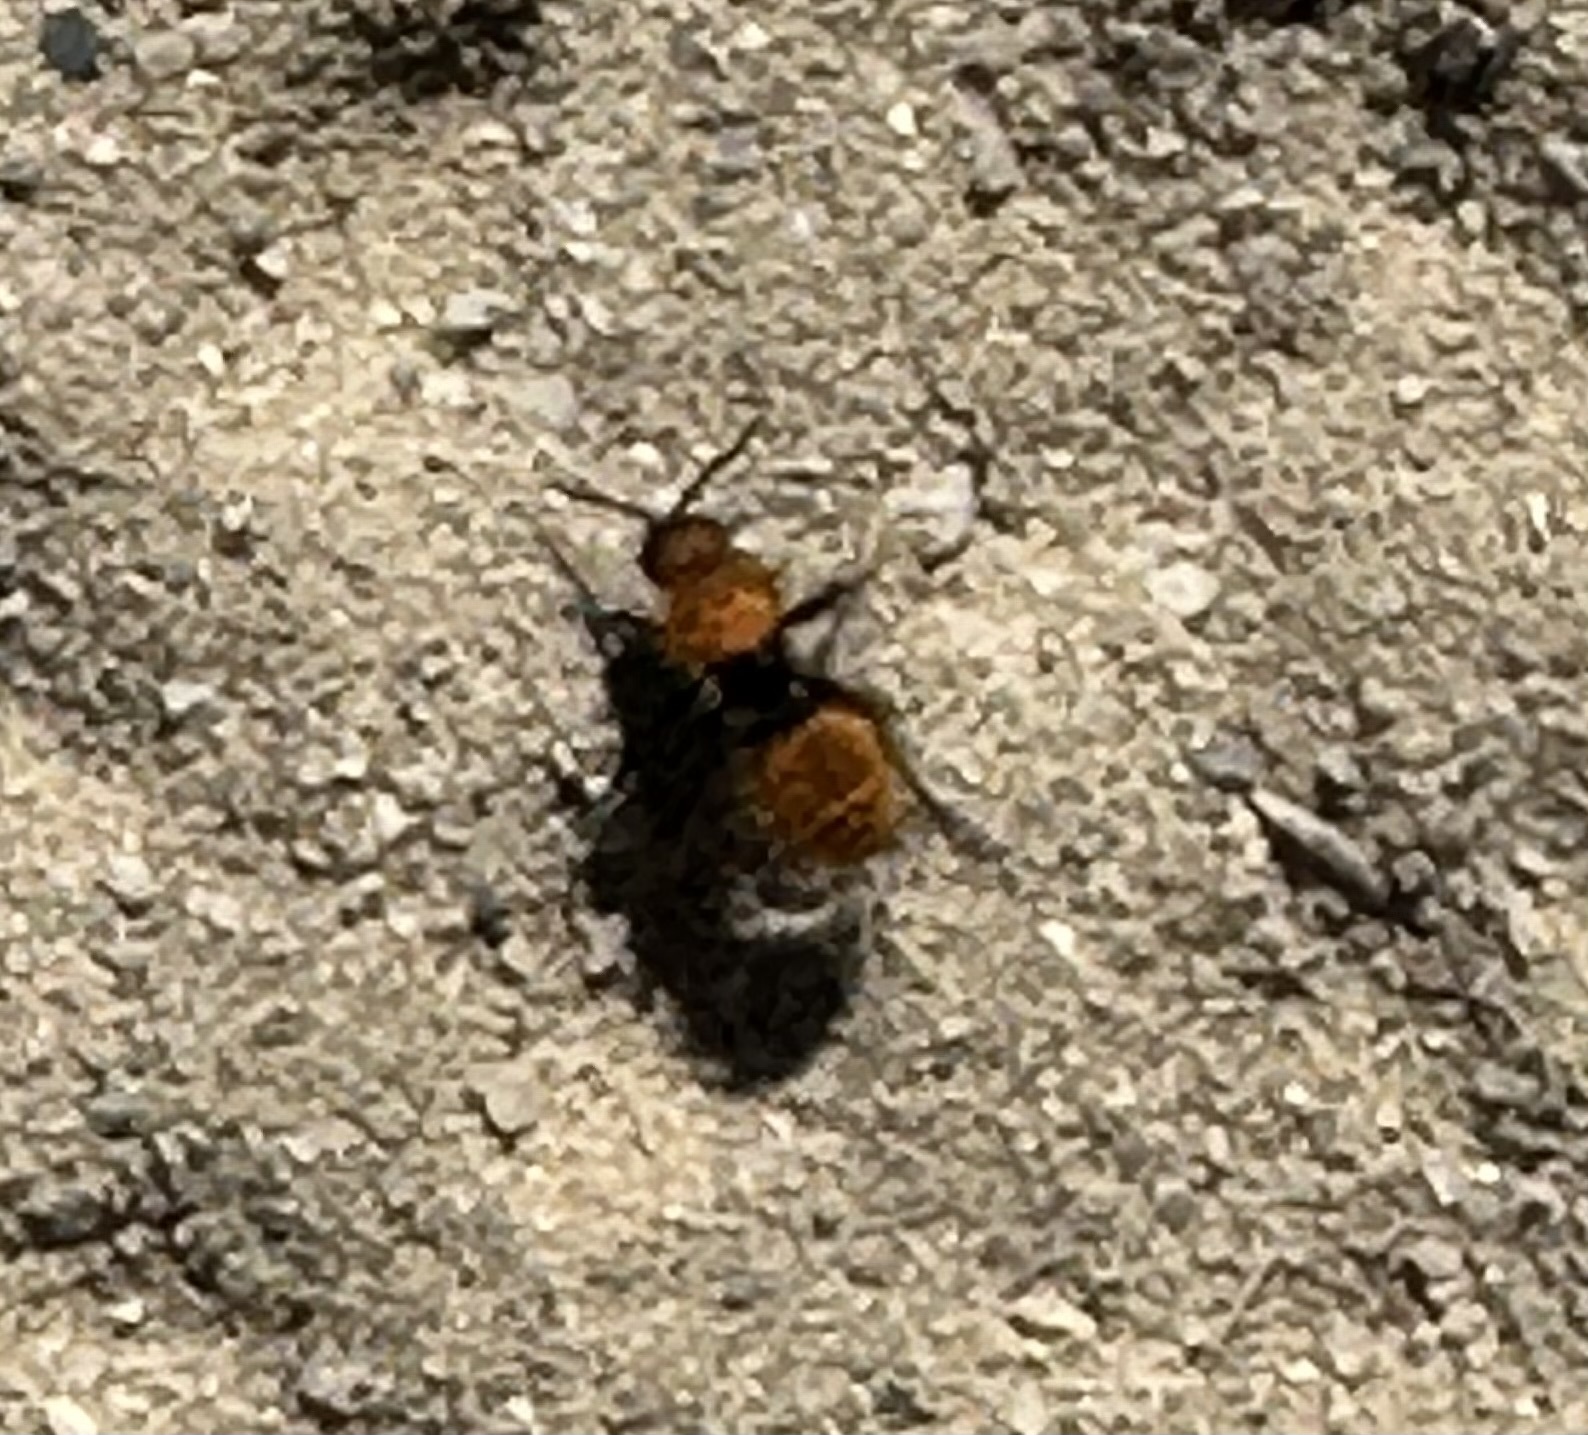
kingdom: Animalia
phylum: Arthropoda
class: Insecta
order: Hymenoptera
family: Mutillidae
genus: Dasymutilla
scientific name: Dasymutilla
